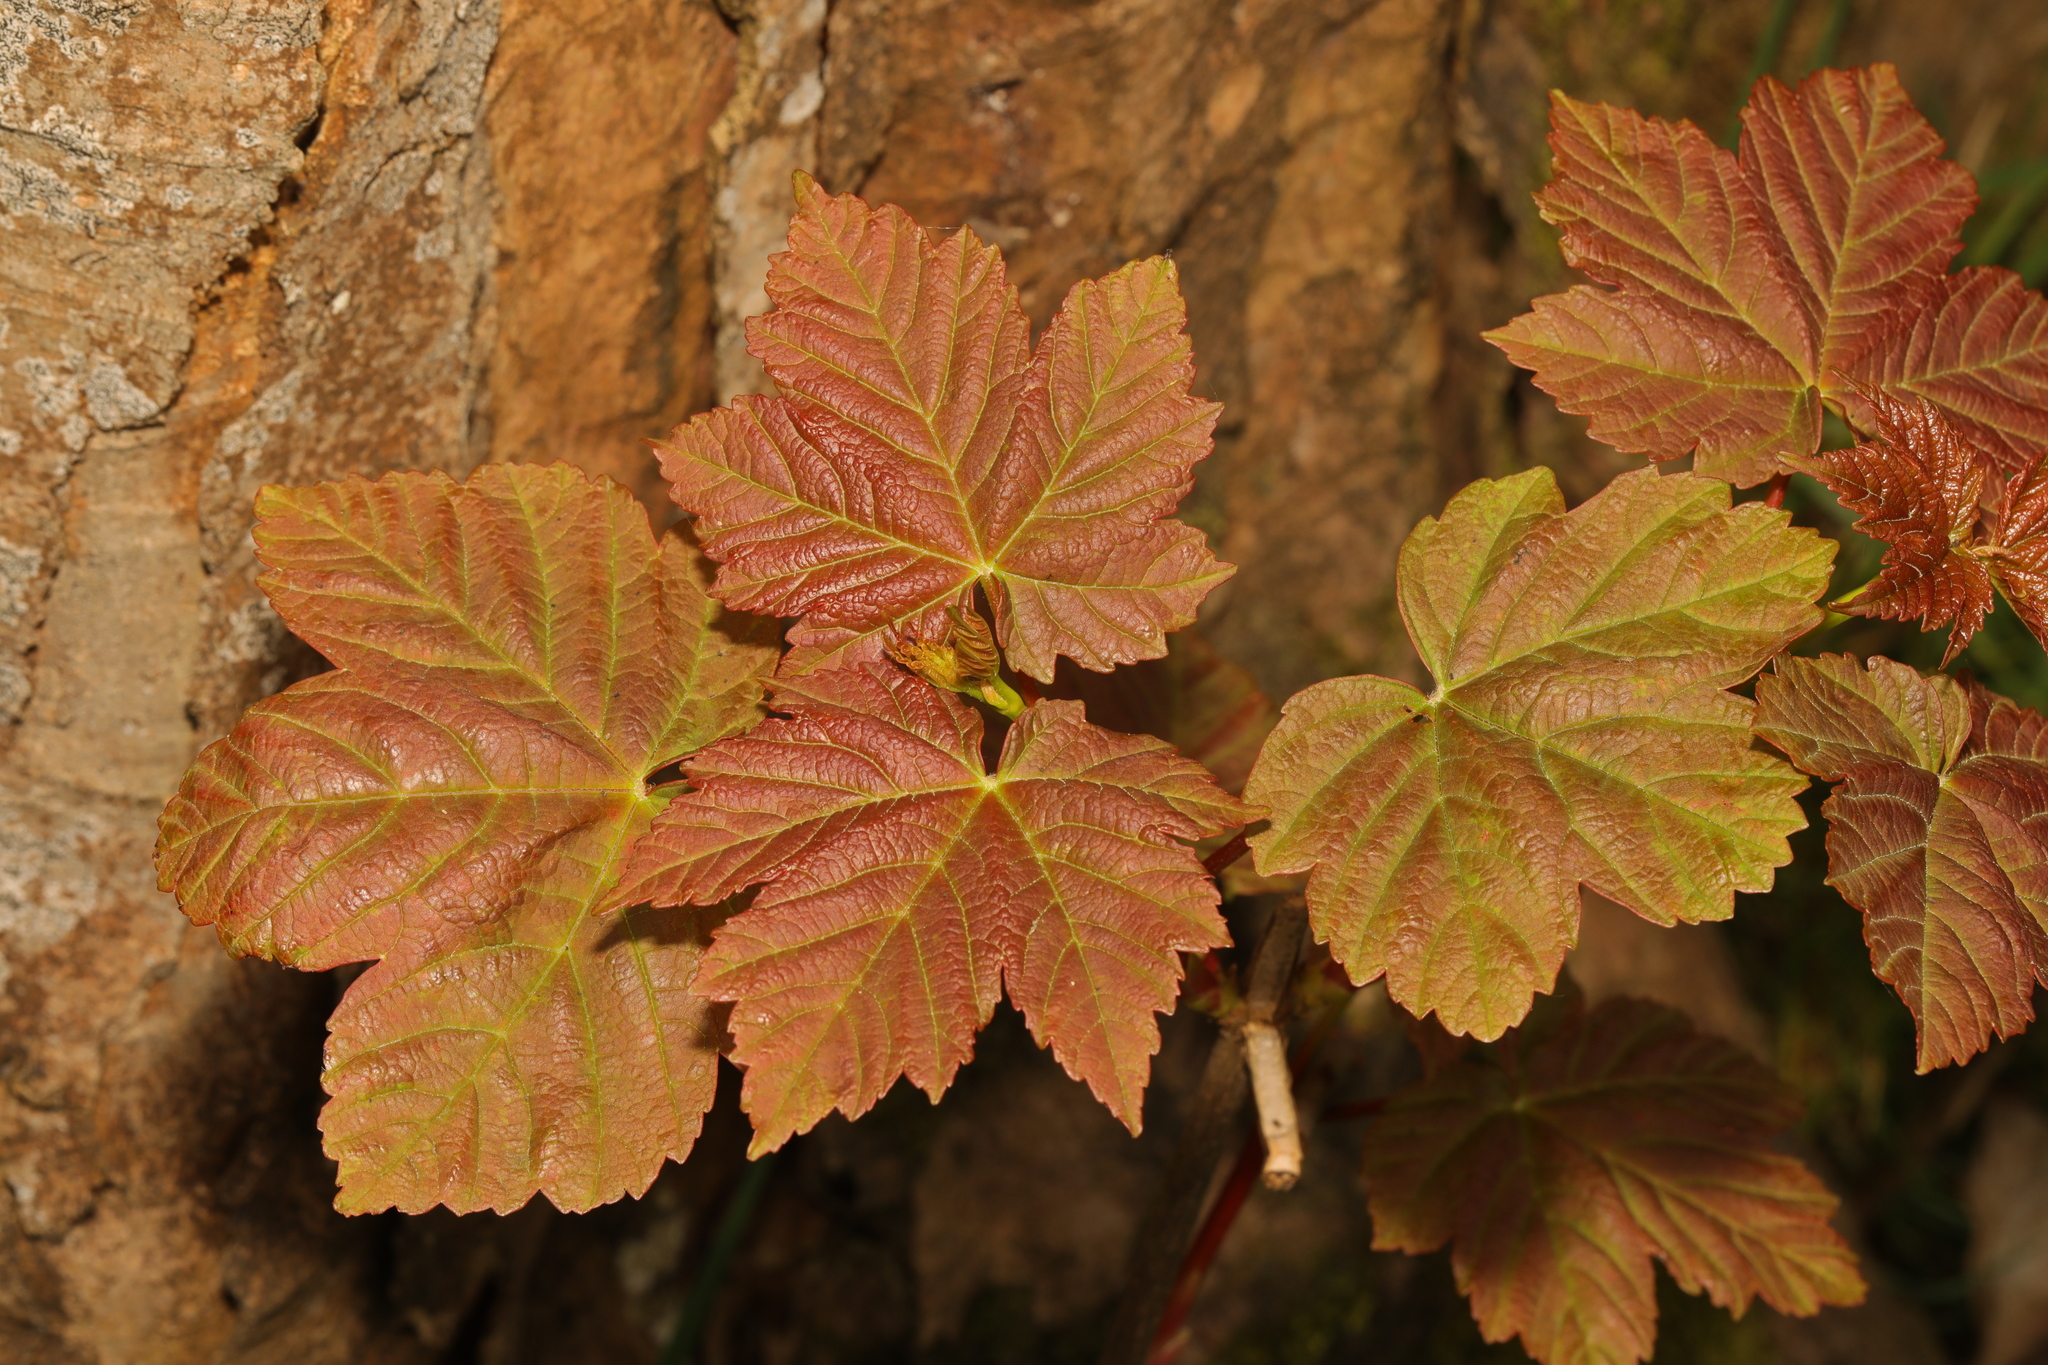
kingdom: Plantae
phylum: Tracheophyta
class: Magnoliopsida
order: Sapindales
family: Sapindaceae
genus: Acer
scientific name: Acer pseudoplatanus
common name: Sycamore
